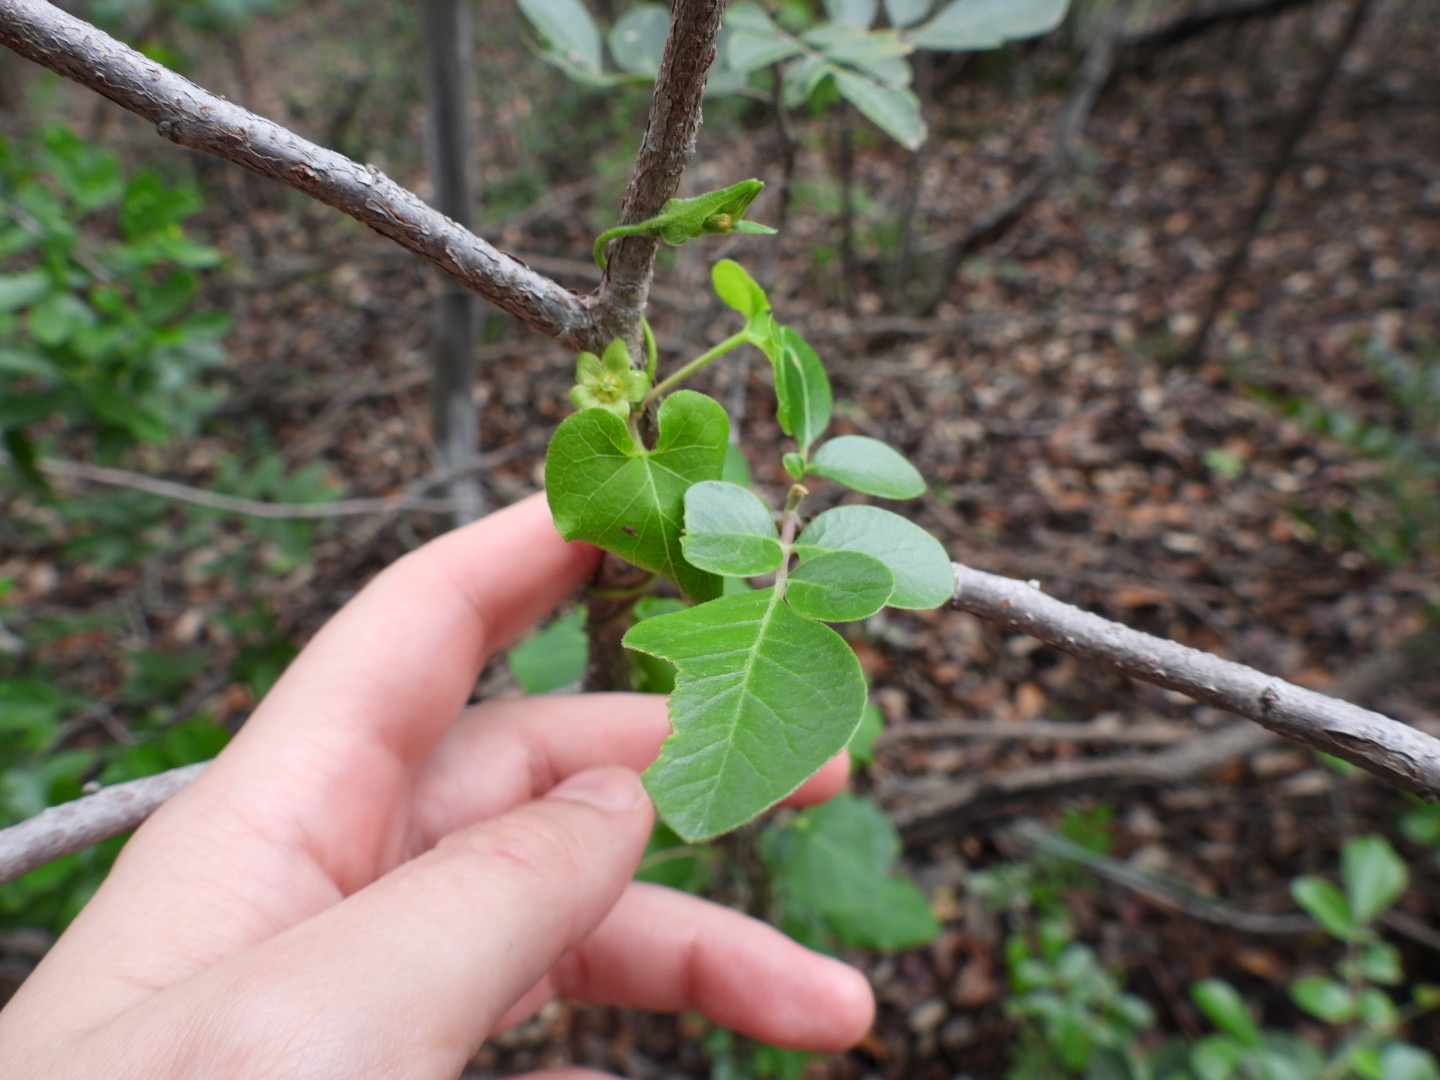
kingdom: Plantae
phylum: Tracheophyta
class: Magnoliopsida
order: Gentianales
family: Apocynaceae
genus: Matelea
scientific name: Matelea edwardsensis
